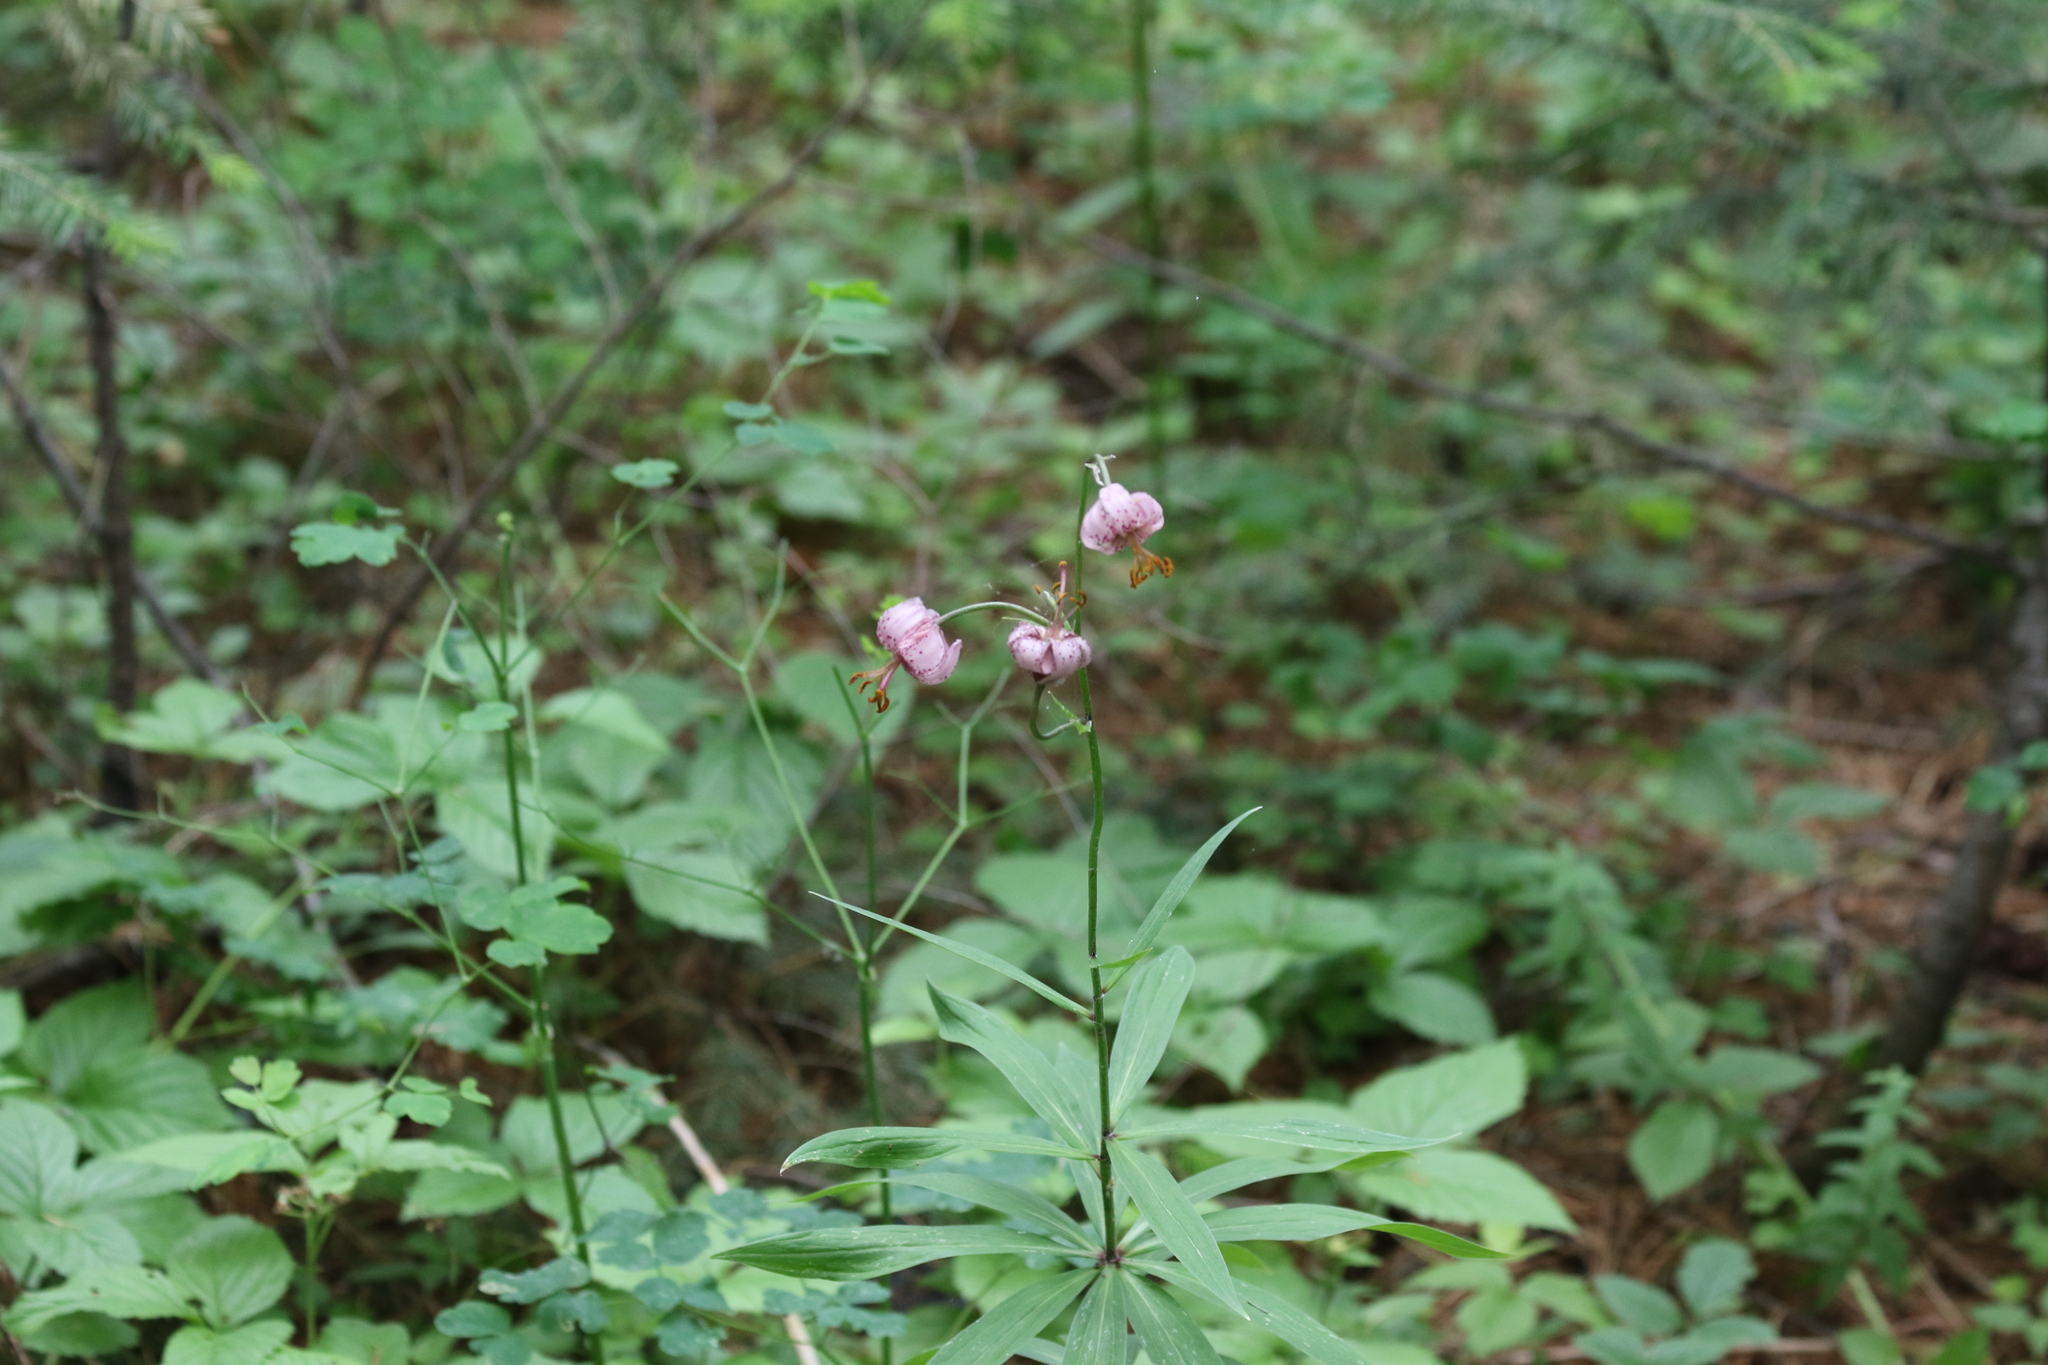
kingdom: Plantae
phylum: Tracheophyta
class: Liliopsida
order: Liliales
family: Liliaceae
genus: Lilium
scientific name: Lilium martagon
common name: Martagon lily
